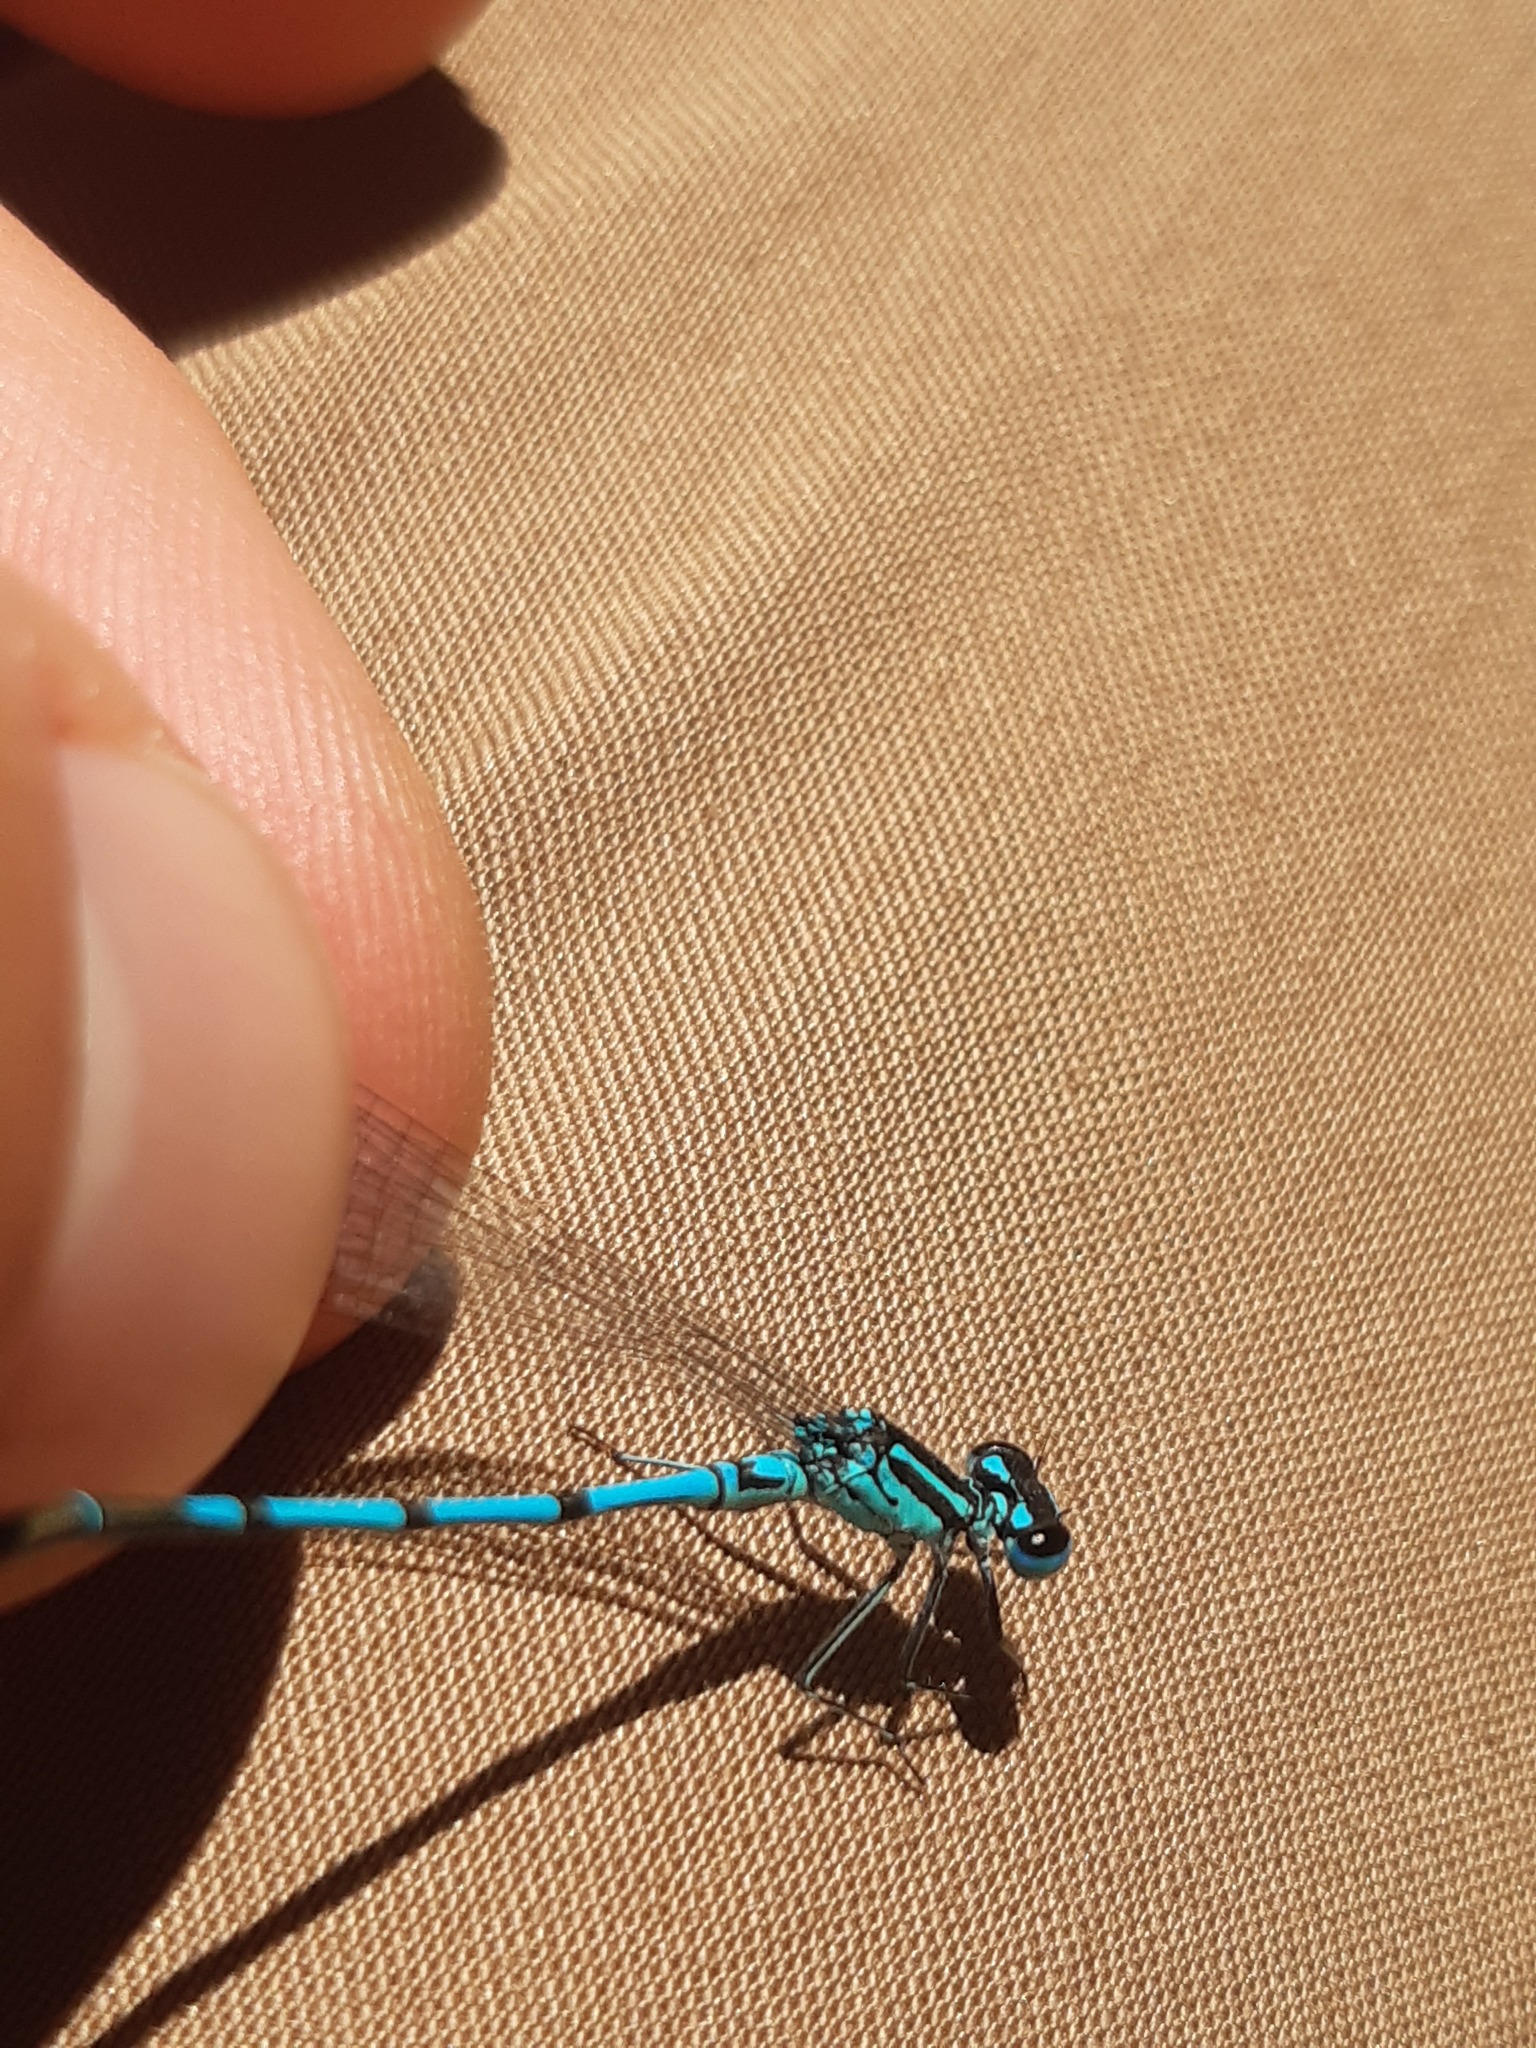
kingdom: Animalia
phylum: Arthropoda
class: Insecta
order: Odonata
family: Coenagrionidae
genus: Coenagrion
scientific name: Coenagrion puella
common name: Azure damselfly
